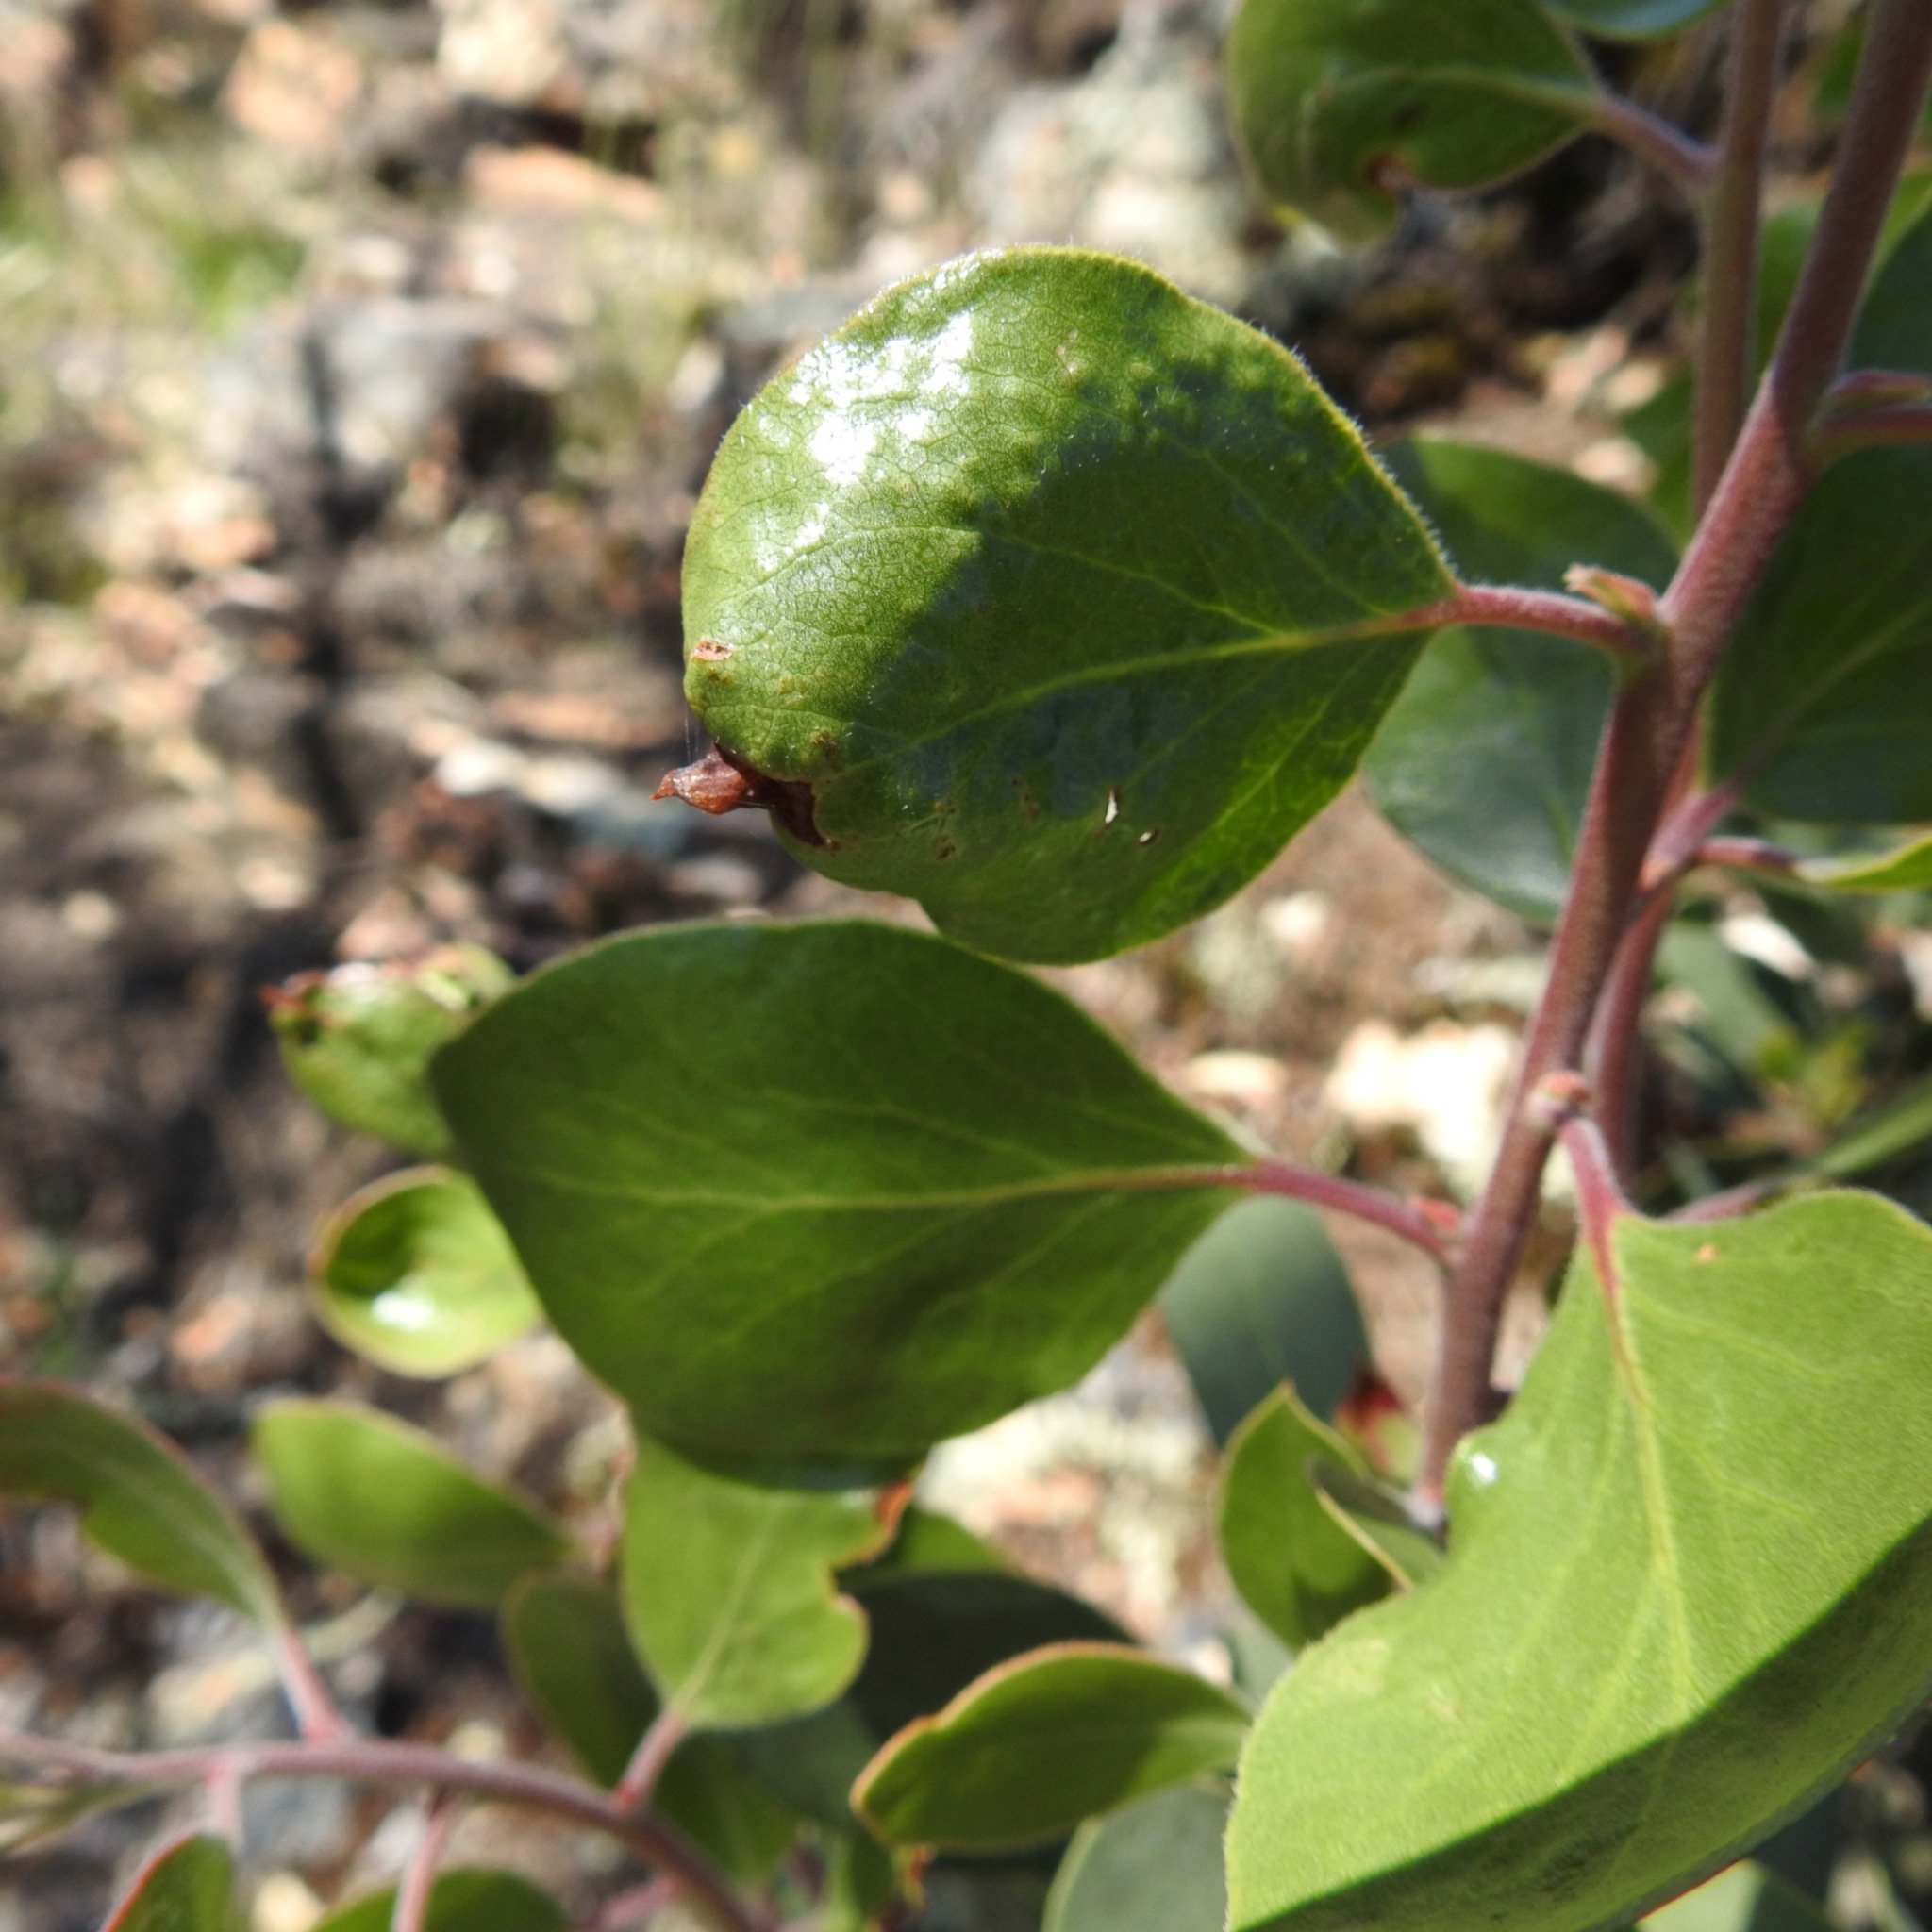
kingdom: Plantae
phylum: Tracheophyta
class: Magnoliopsida
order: Ericales
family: Ericaceae
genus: Arctostaphylos
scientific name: Arctostaphylos manzanita
